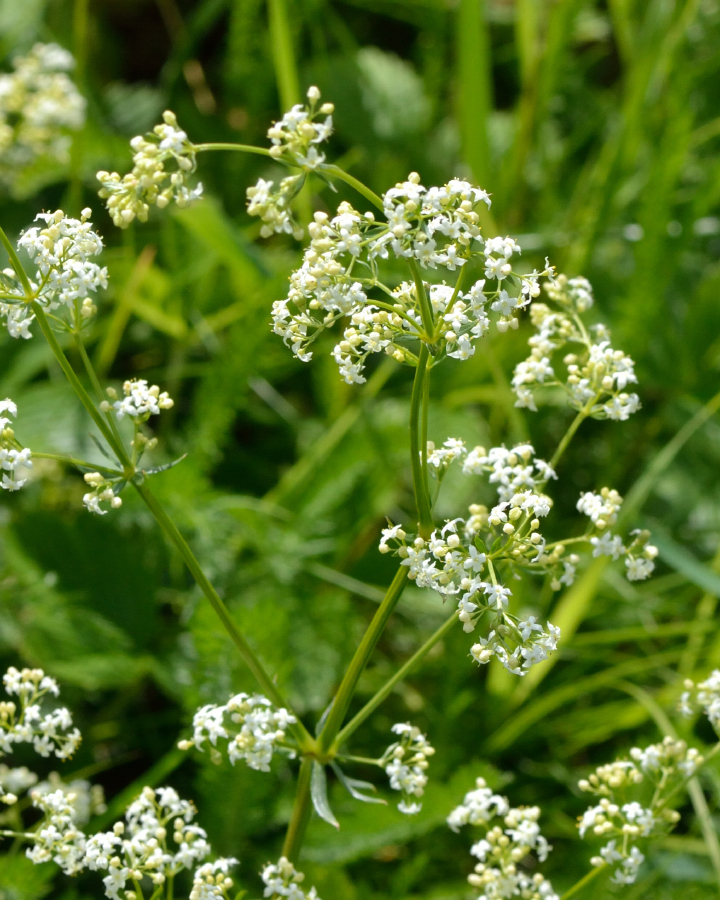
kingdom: Plantae
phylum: Tracheophyta
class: Magnoliopsida
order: Gentianales
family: Rubiaceae
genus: Galium
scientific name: Galium mollugo
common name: Hedge bedstraw
